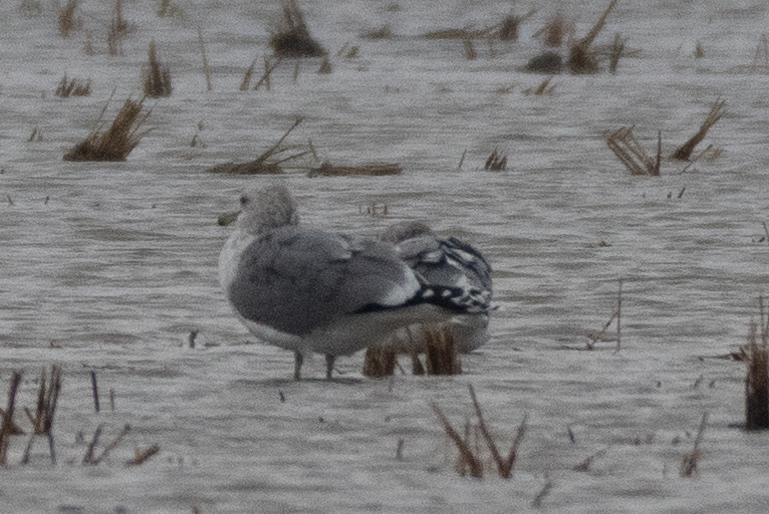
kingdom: Animalia
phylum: Chordata
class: Aves
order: Charadriiformes
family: Laridae
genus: Larus
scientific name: Larus californicus
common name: California gull
